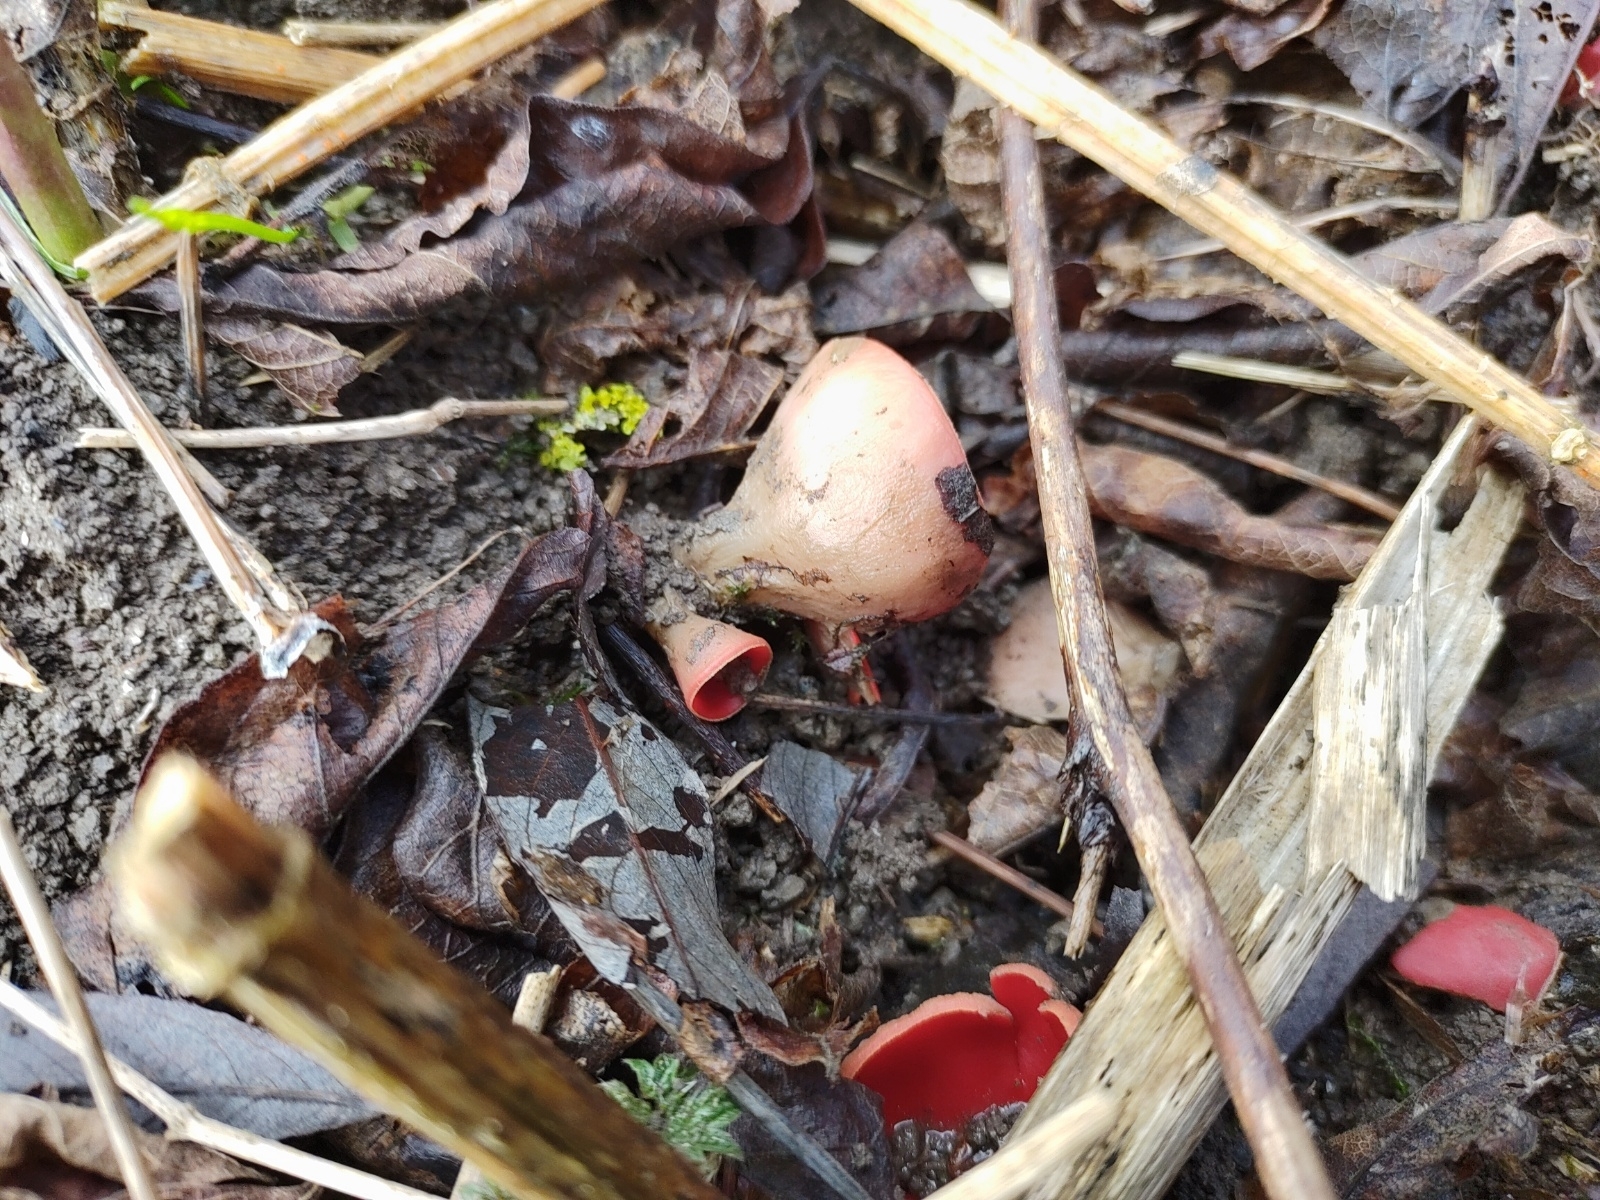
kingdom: Fungi
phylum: Ascomycota
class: Pezizomycetes
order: Pezizales
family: Sarcoscyphaceae
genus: Sarcoscypha
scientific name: Sarcoscypha
